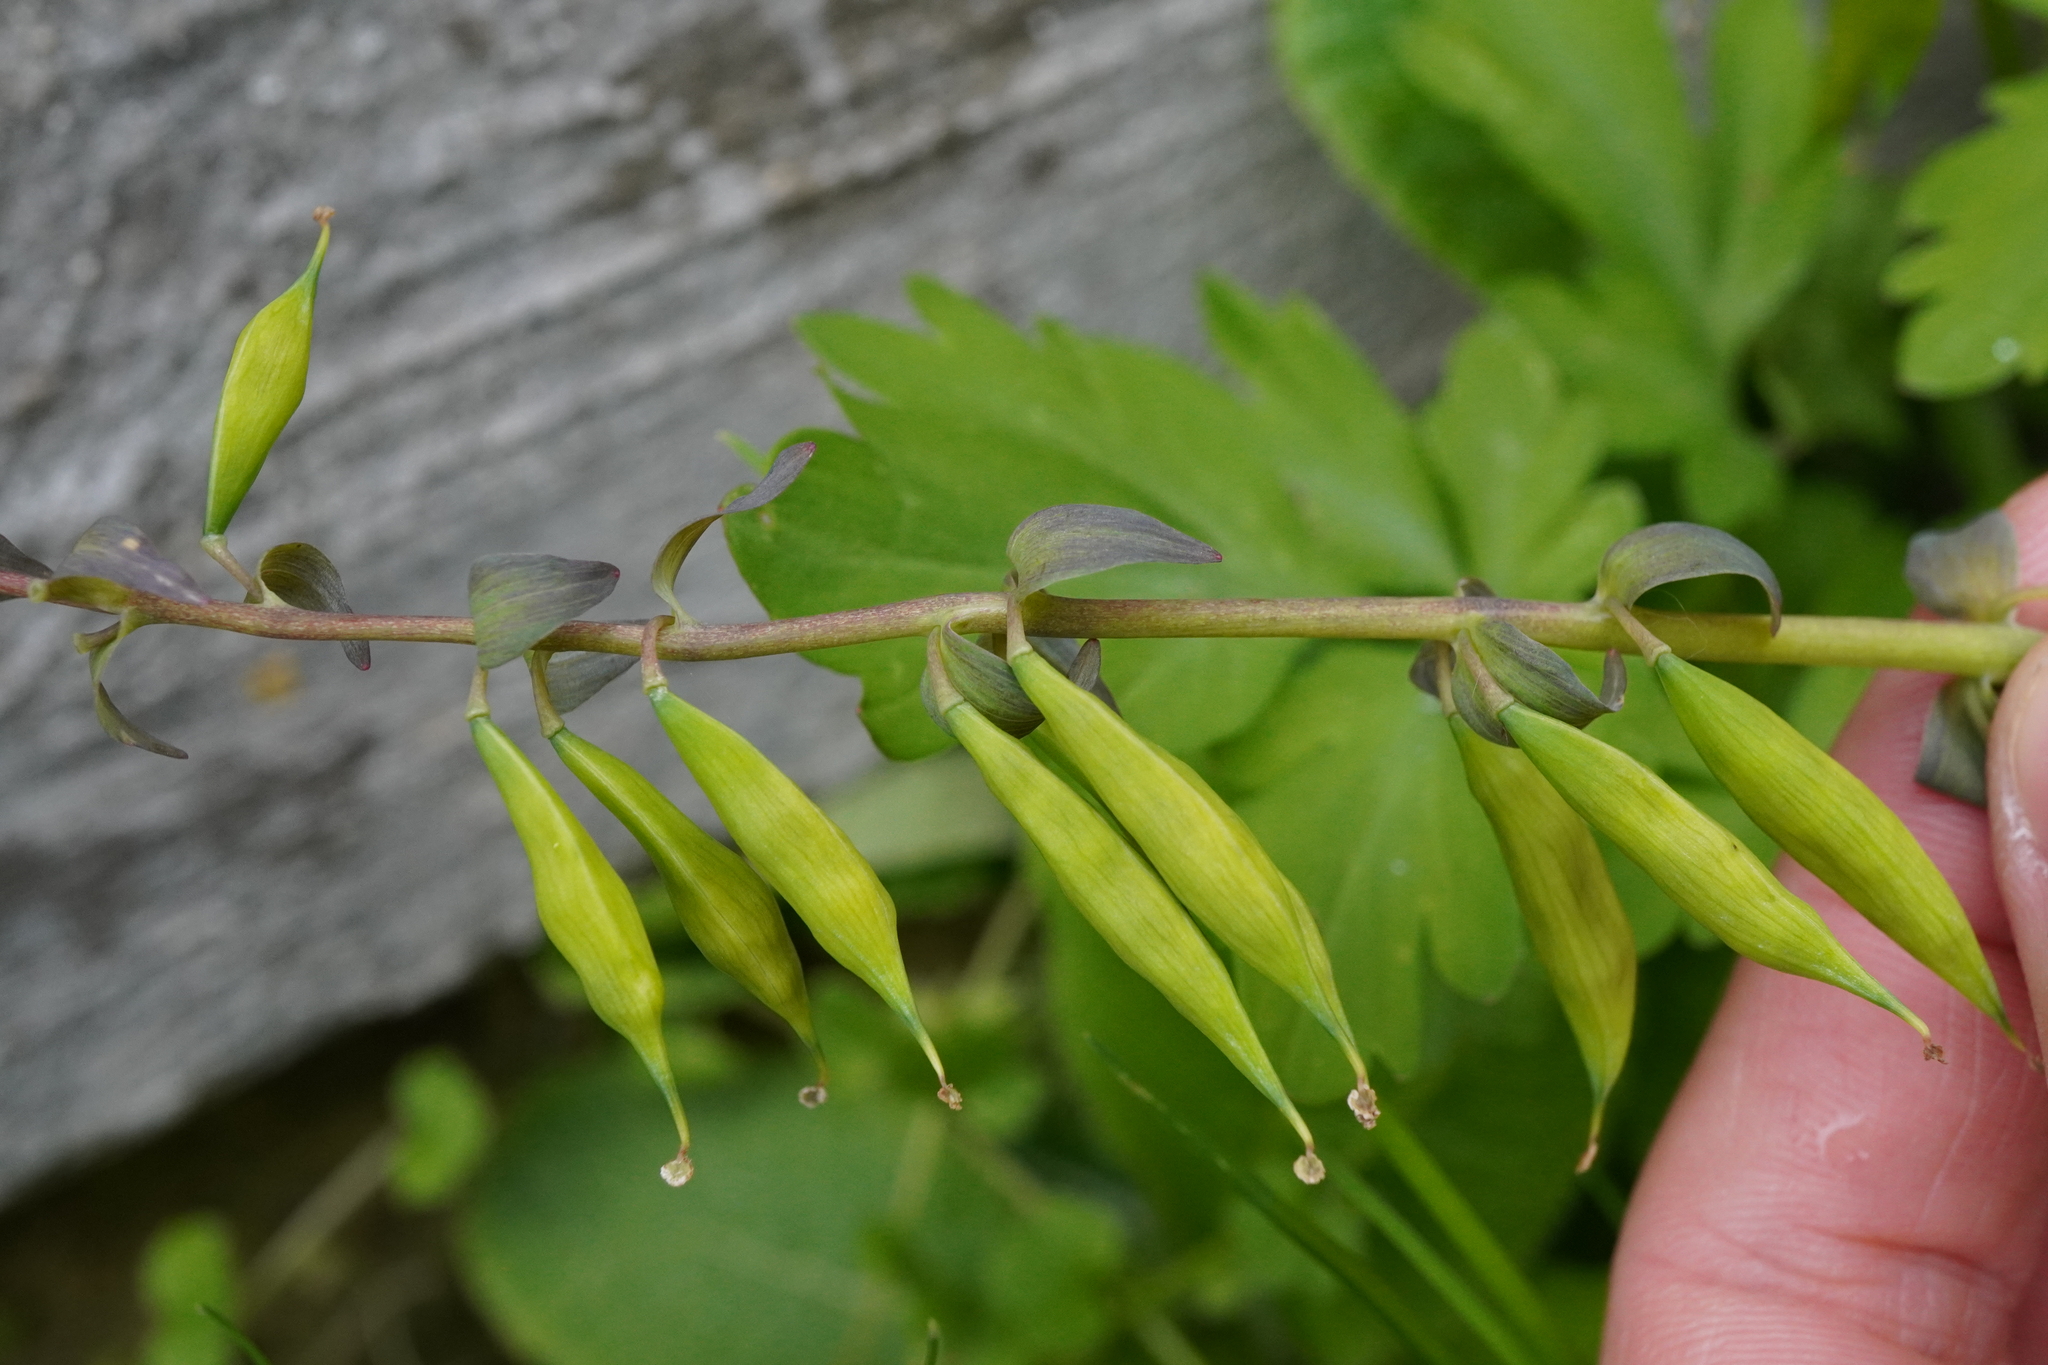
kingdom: Plantae
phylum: Tracheophyta
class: Magnoliopsida
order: Ranunculales
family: Papaveraceae
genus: Corydalis
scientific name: Corydalis cava
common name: Hollowroot
